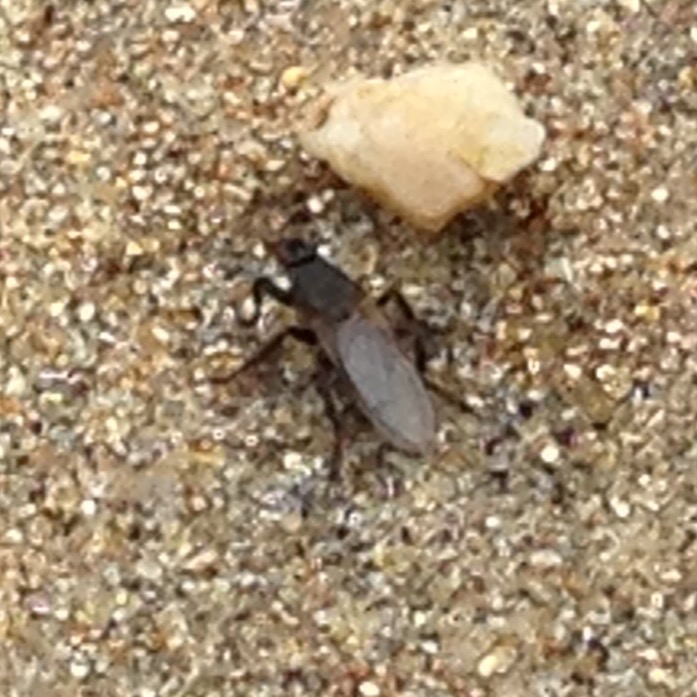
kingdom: Animalia
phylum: Arthropoda
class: Insecta
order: Diptera
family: Coelopidae
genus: Coelopa
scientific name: Coelopa vanduzeei
